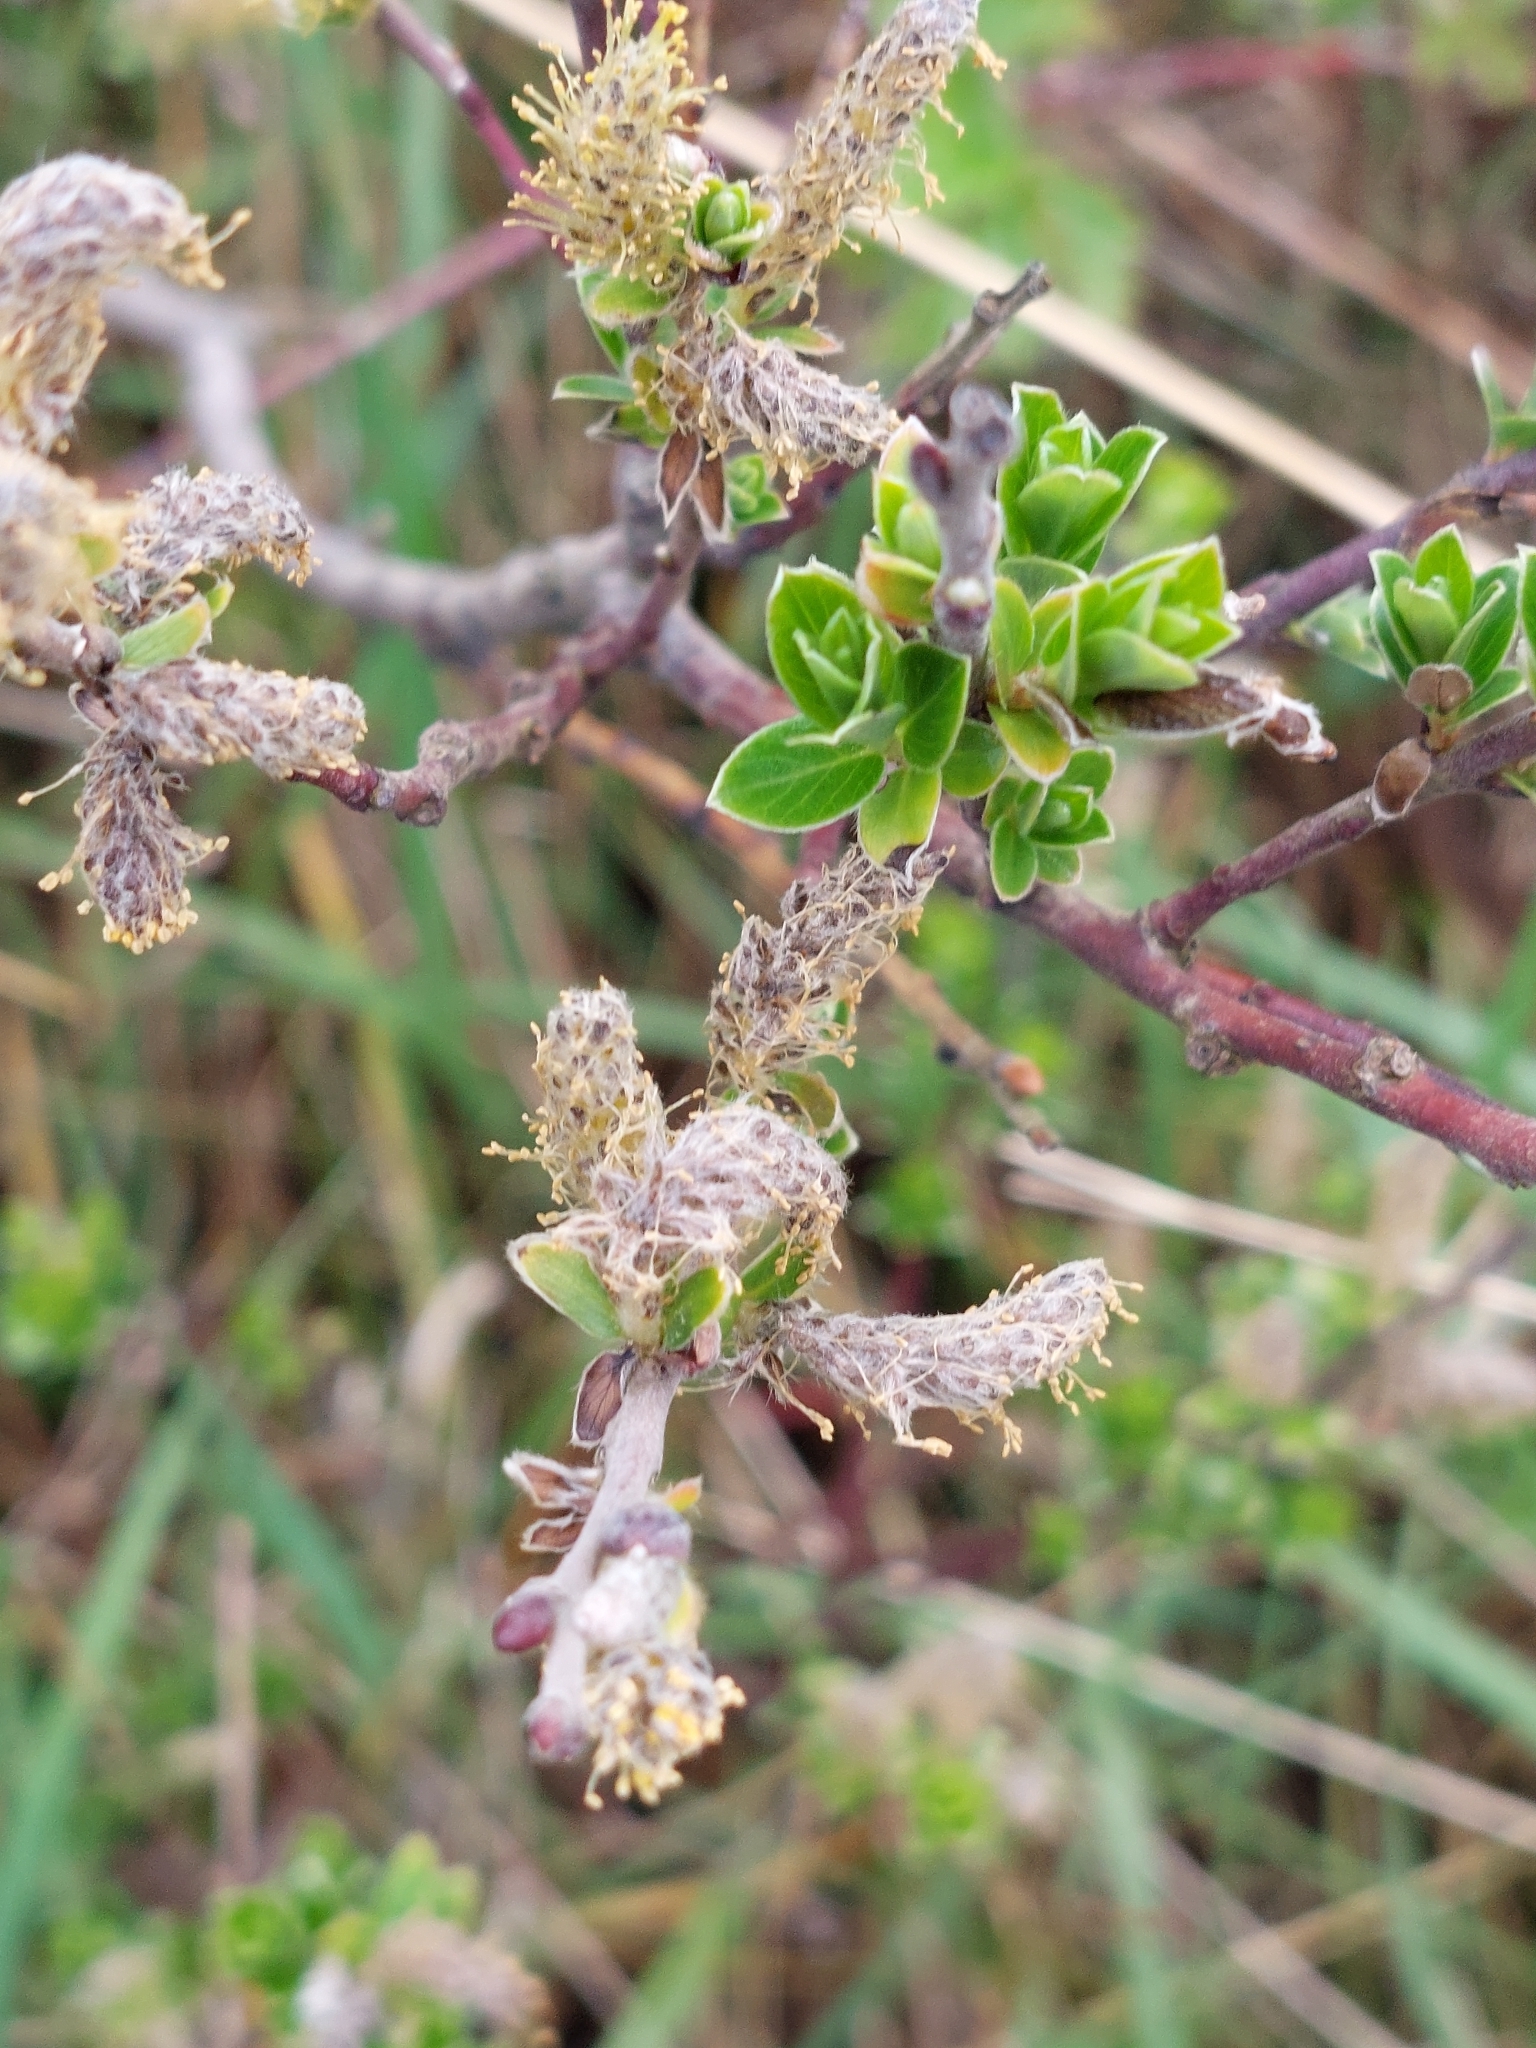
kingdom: Plantae
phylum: Tracheophyta
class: Magnoliopsida
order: Malpighiales
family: Salicaceae
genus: Salix
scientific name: Salix repens
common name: Creeping willow
